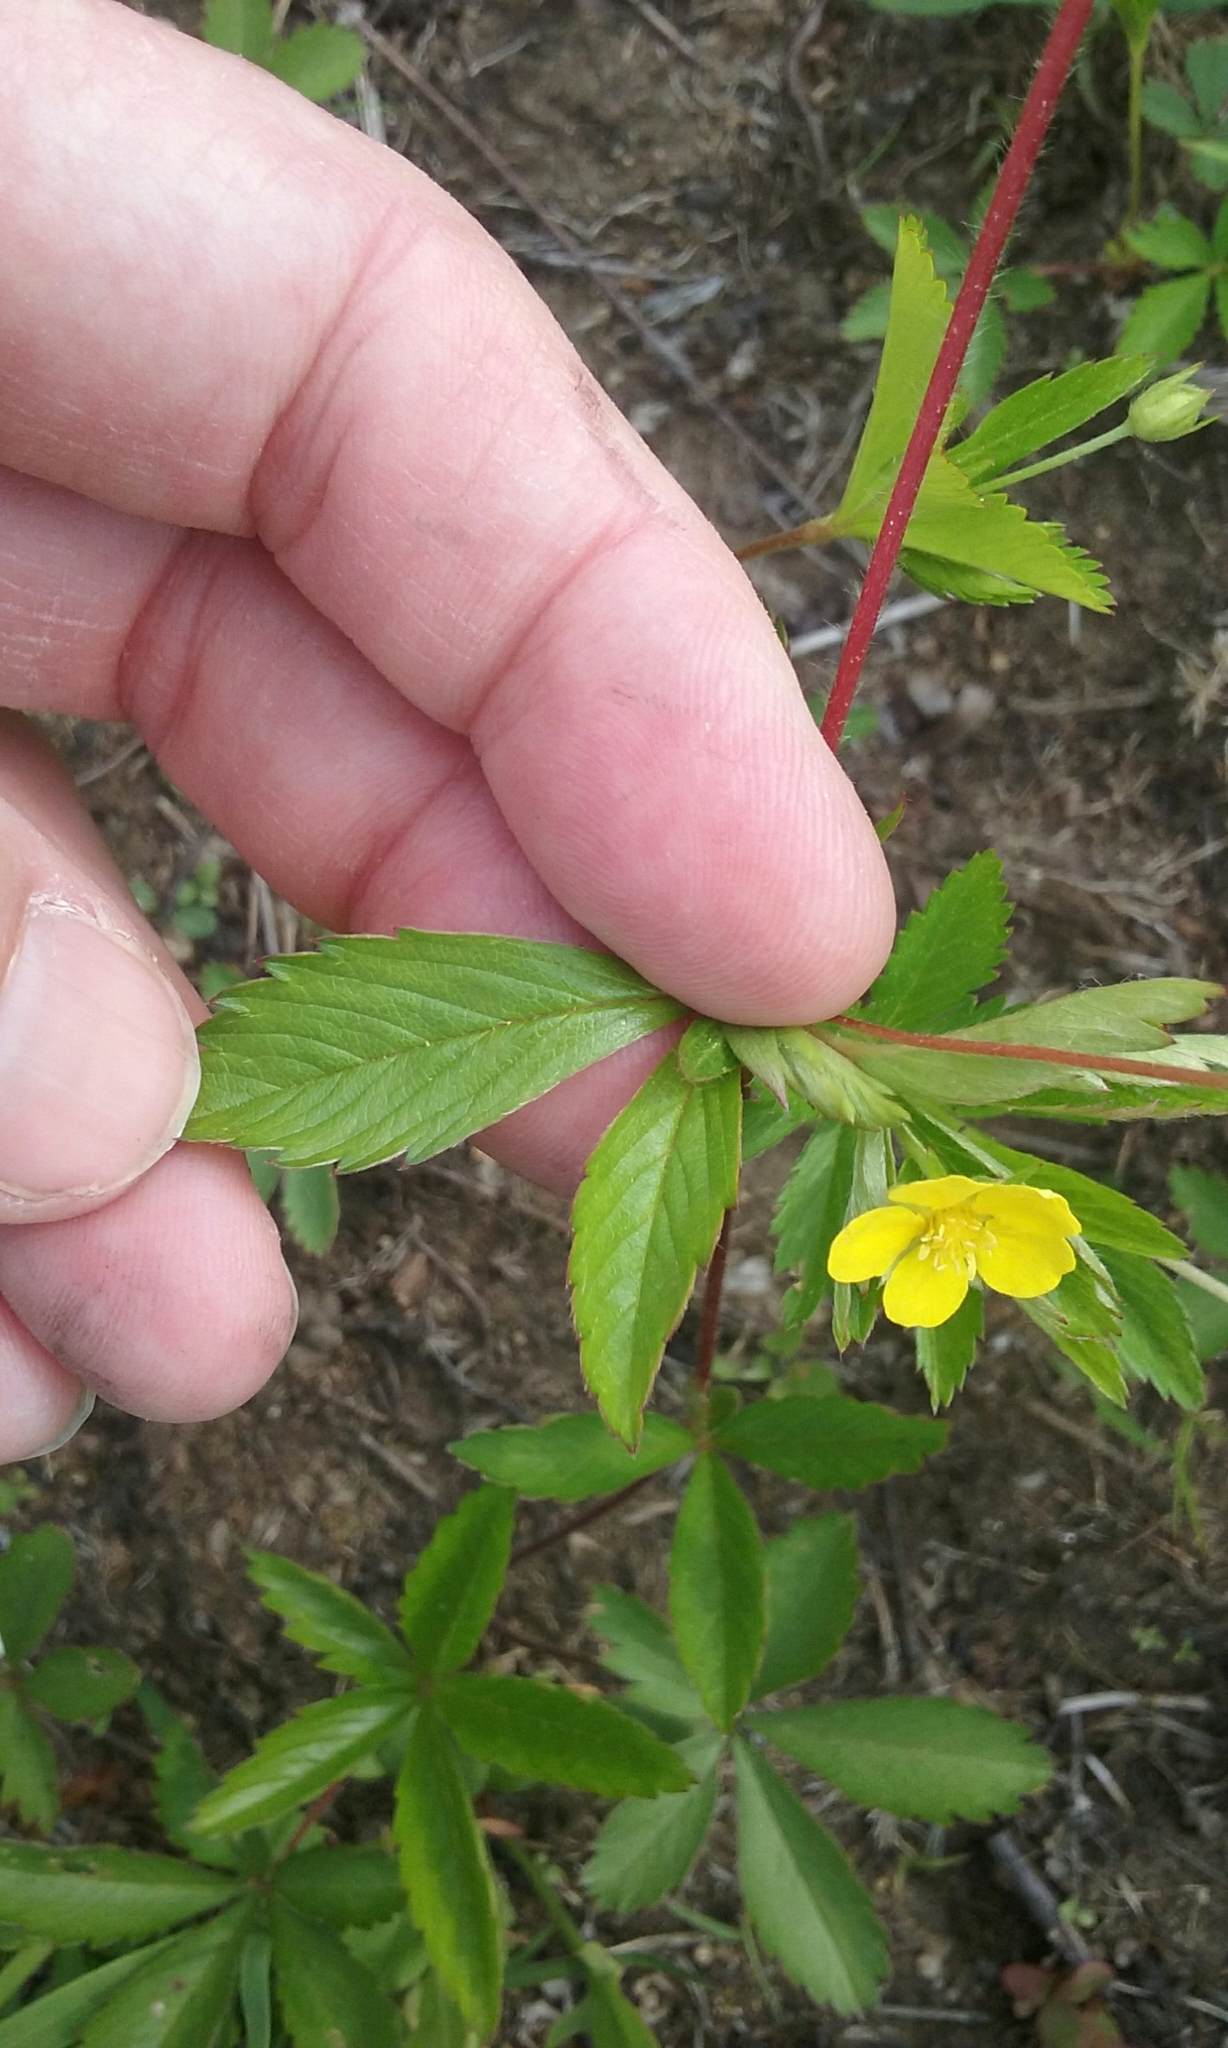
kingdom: Plantae
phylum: Tracheophyta
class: Magnoliopsida
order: Rosales
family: Rosaceae
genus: Potentilla
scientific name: Potentilla simplex
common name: Old field cinquefoil
